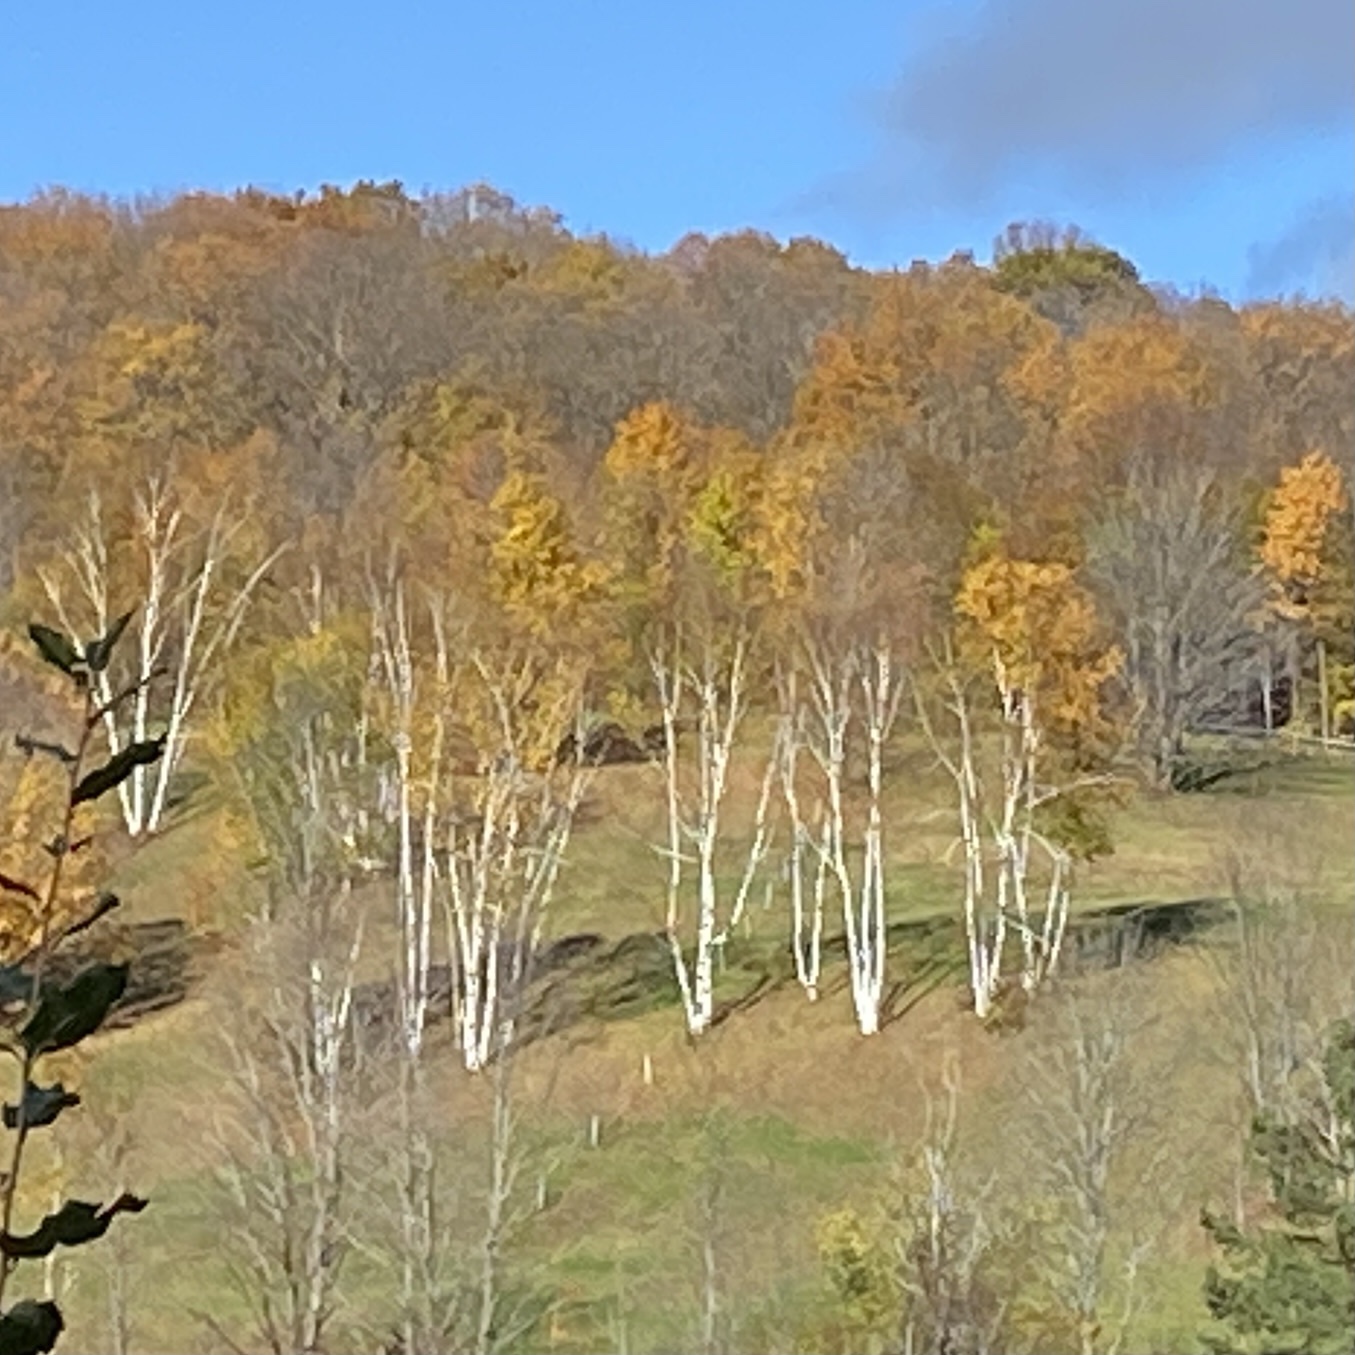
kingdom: Plantae
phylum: Tracheophyta
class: Magnoliopsida
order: Fagales
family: Betulaceae
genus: Betula
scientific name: Betula papyrifera
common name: Paper birch
